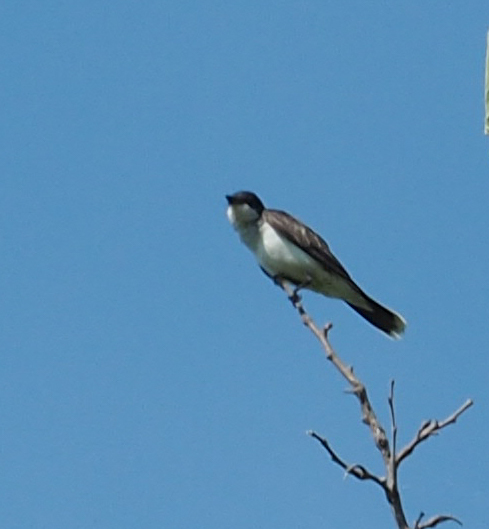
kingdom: Animalia
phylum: Chordata
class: Aves
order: Passeriformes
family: Tyrannidae
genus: Tyrannus
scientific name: Tyrannus tyrannus
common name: Eastern kingbird
